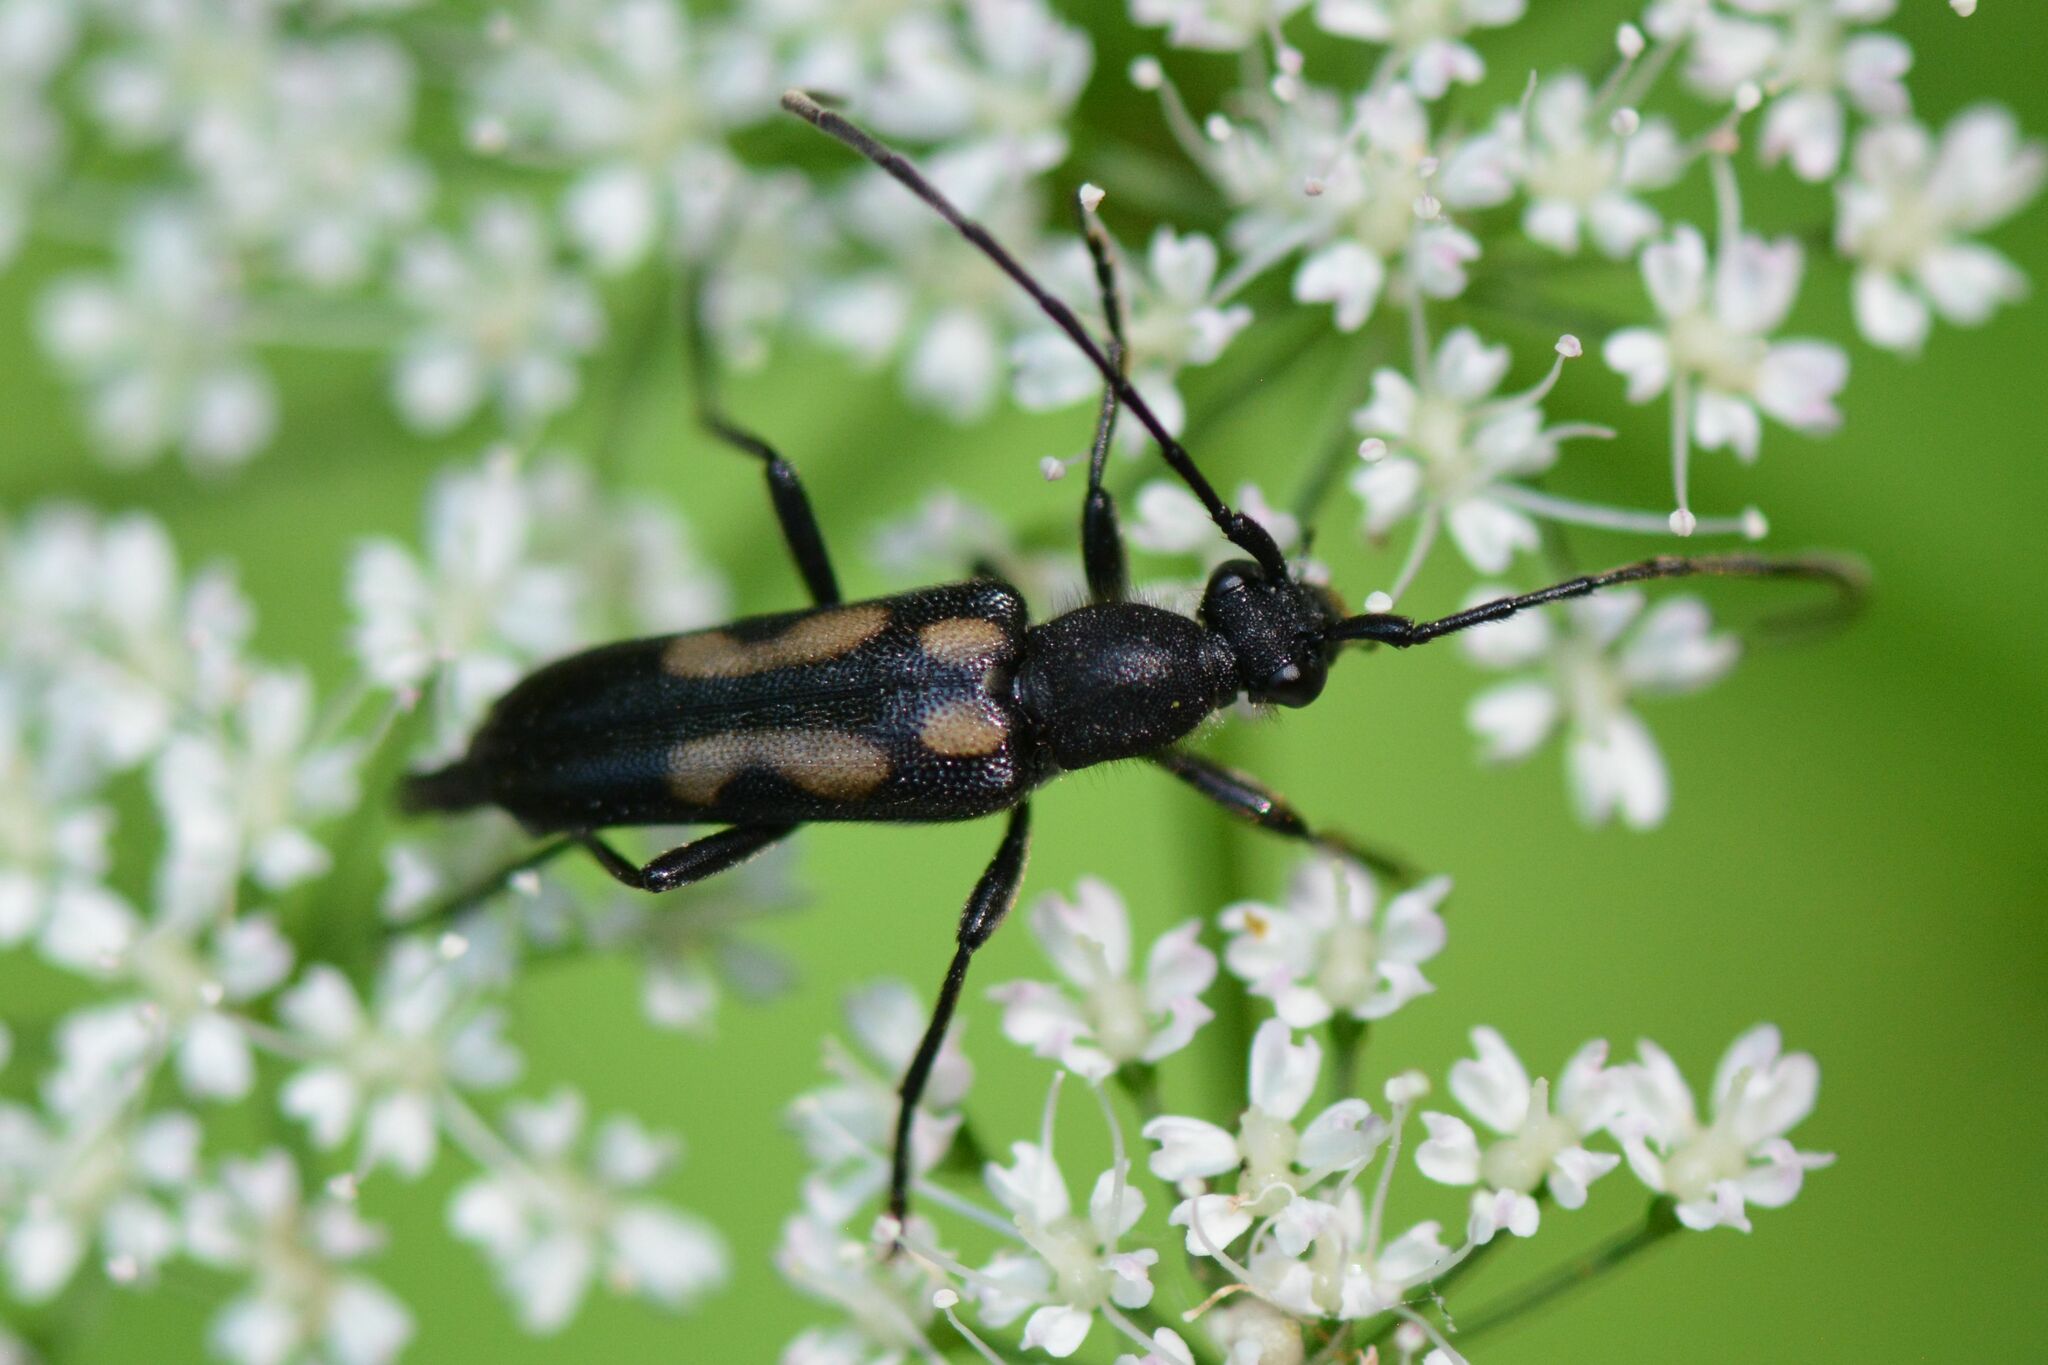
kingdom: Animalia
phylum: Arthropoda
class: Insecta
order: Coleoptera
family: Cerambycidae
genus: Anoplodera
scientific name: Anoplodera sexguttata
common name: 6 spotted longhorn
